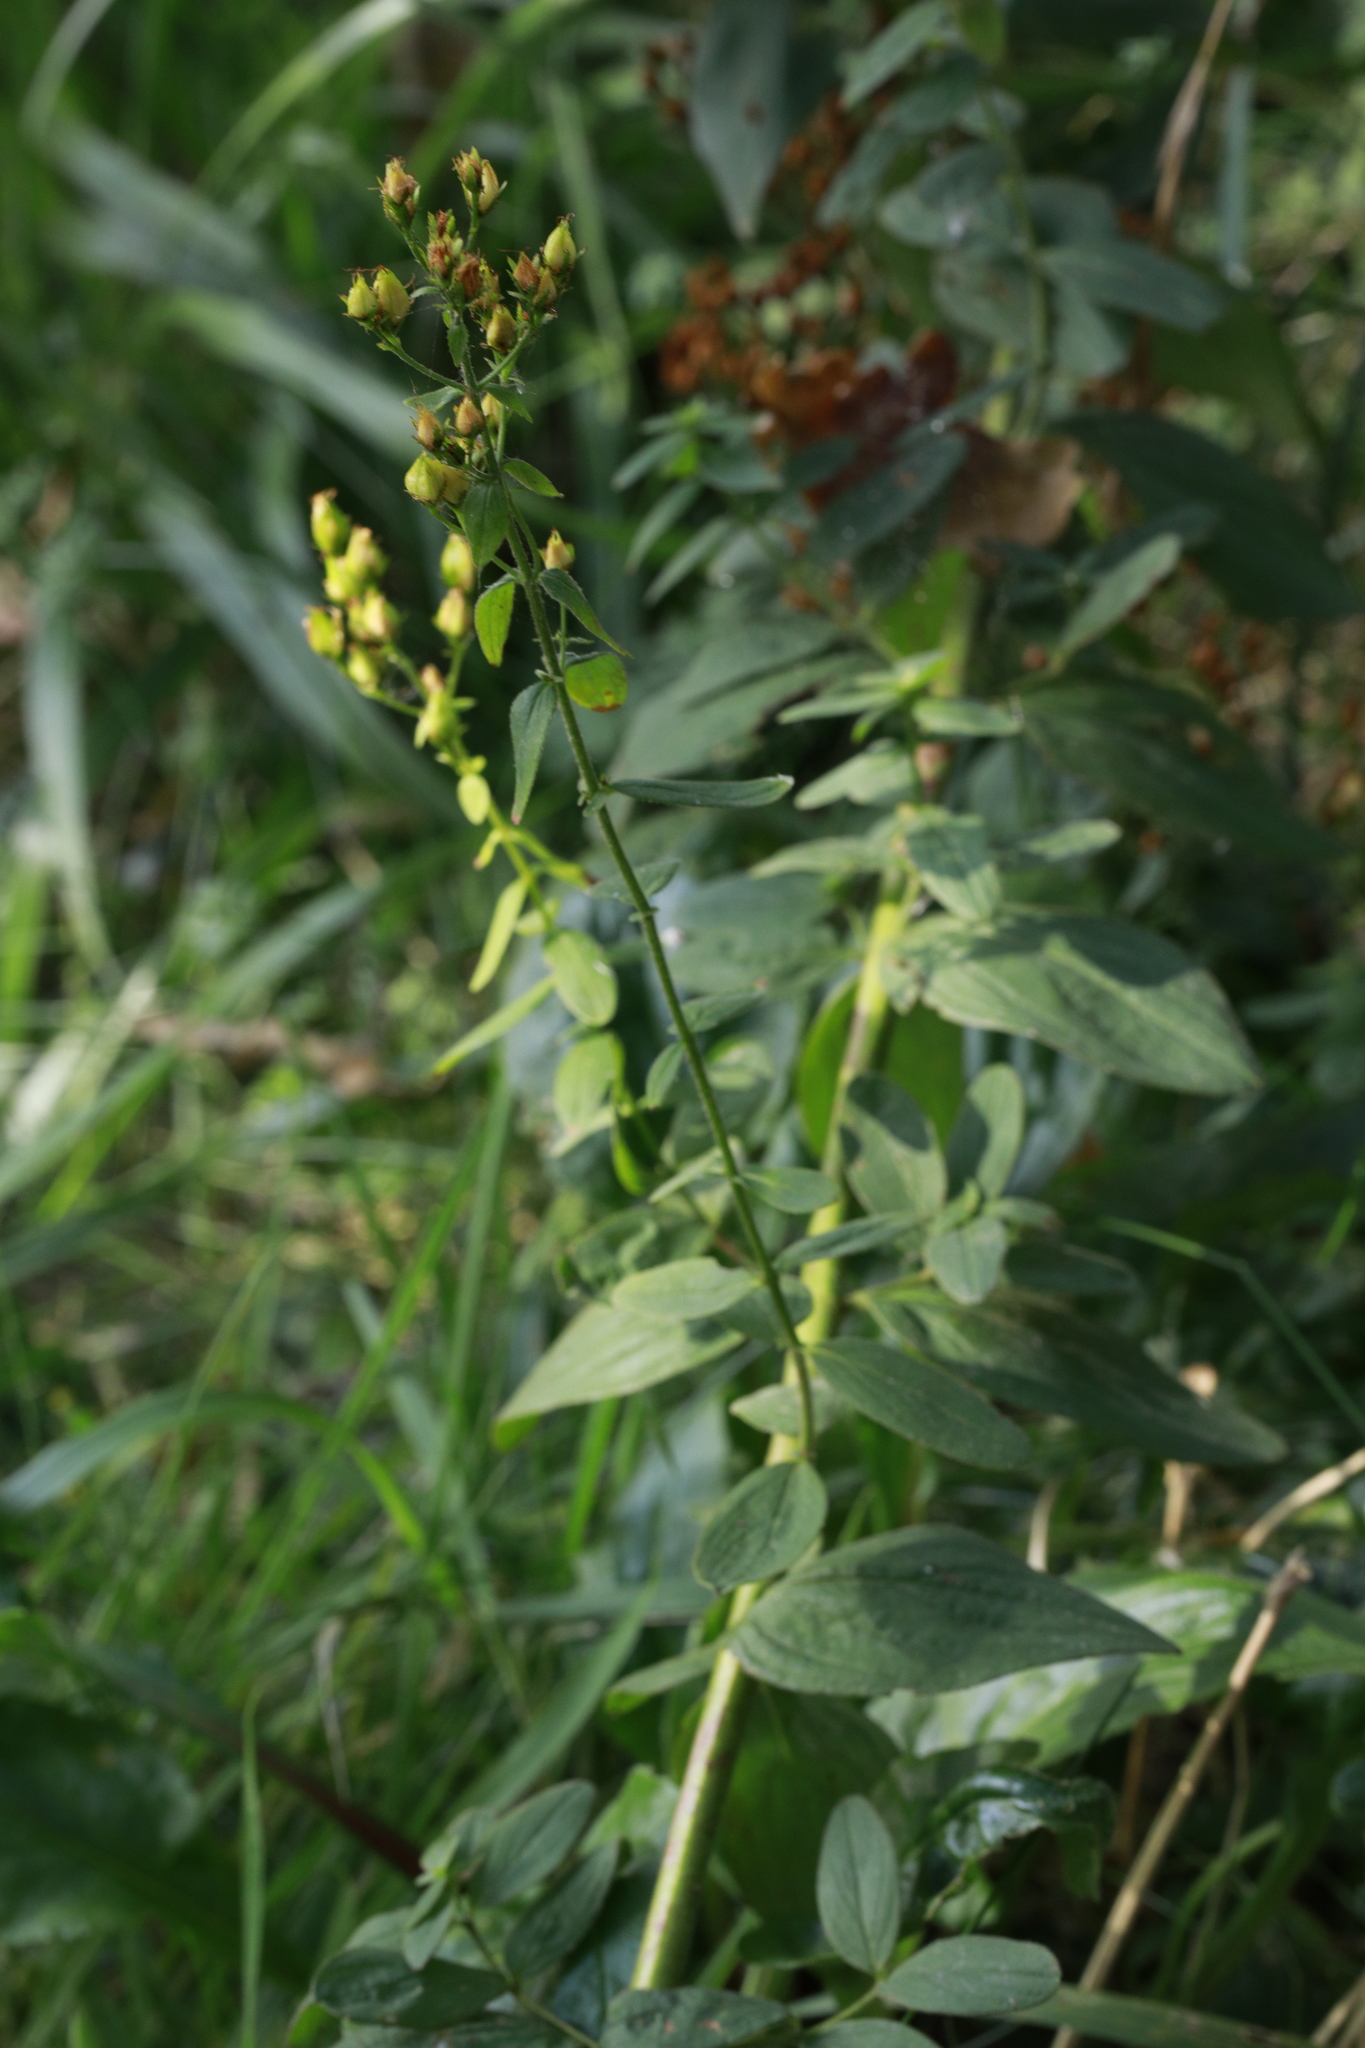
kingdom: Plantae
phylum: Tracheophyta
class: Magnoliopsida
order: Malpighiales
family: Hypericaceae
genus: Hypericum
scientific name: Hypericum hirsutum
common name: Hairy st. john's-wort
